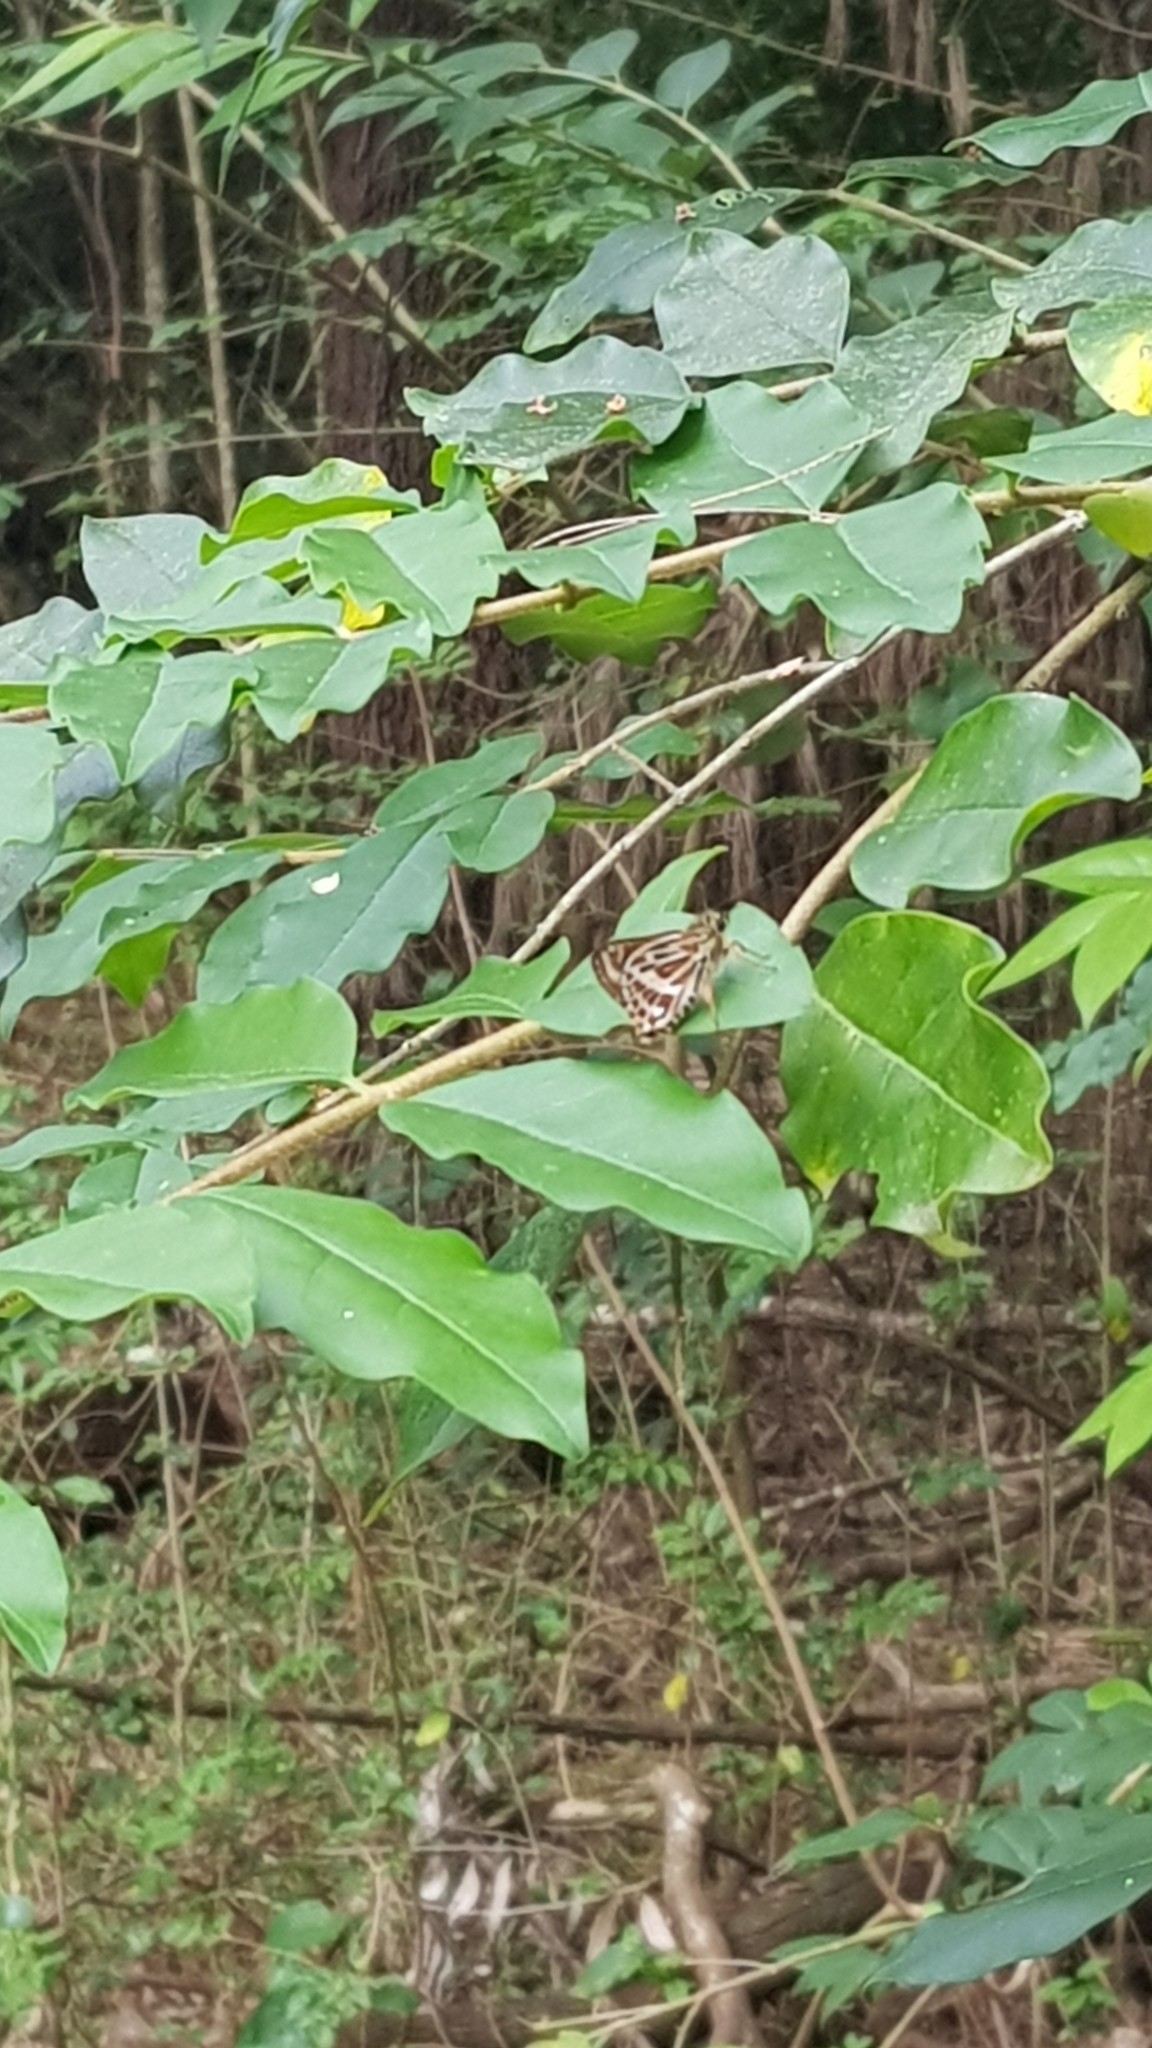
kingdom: Animalia
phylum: Arthropoda
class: Insecta
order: Lepidoptera
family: Hesperiidae
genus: Hesperilla
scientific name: Hesperilla picta
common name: Painted sedge-skipper
